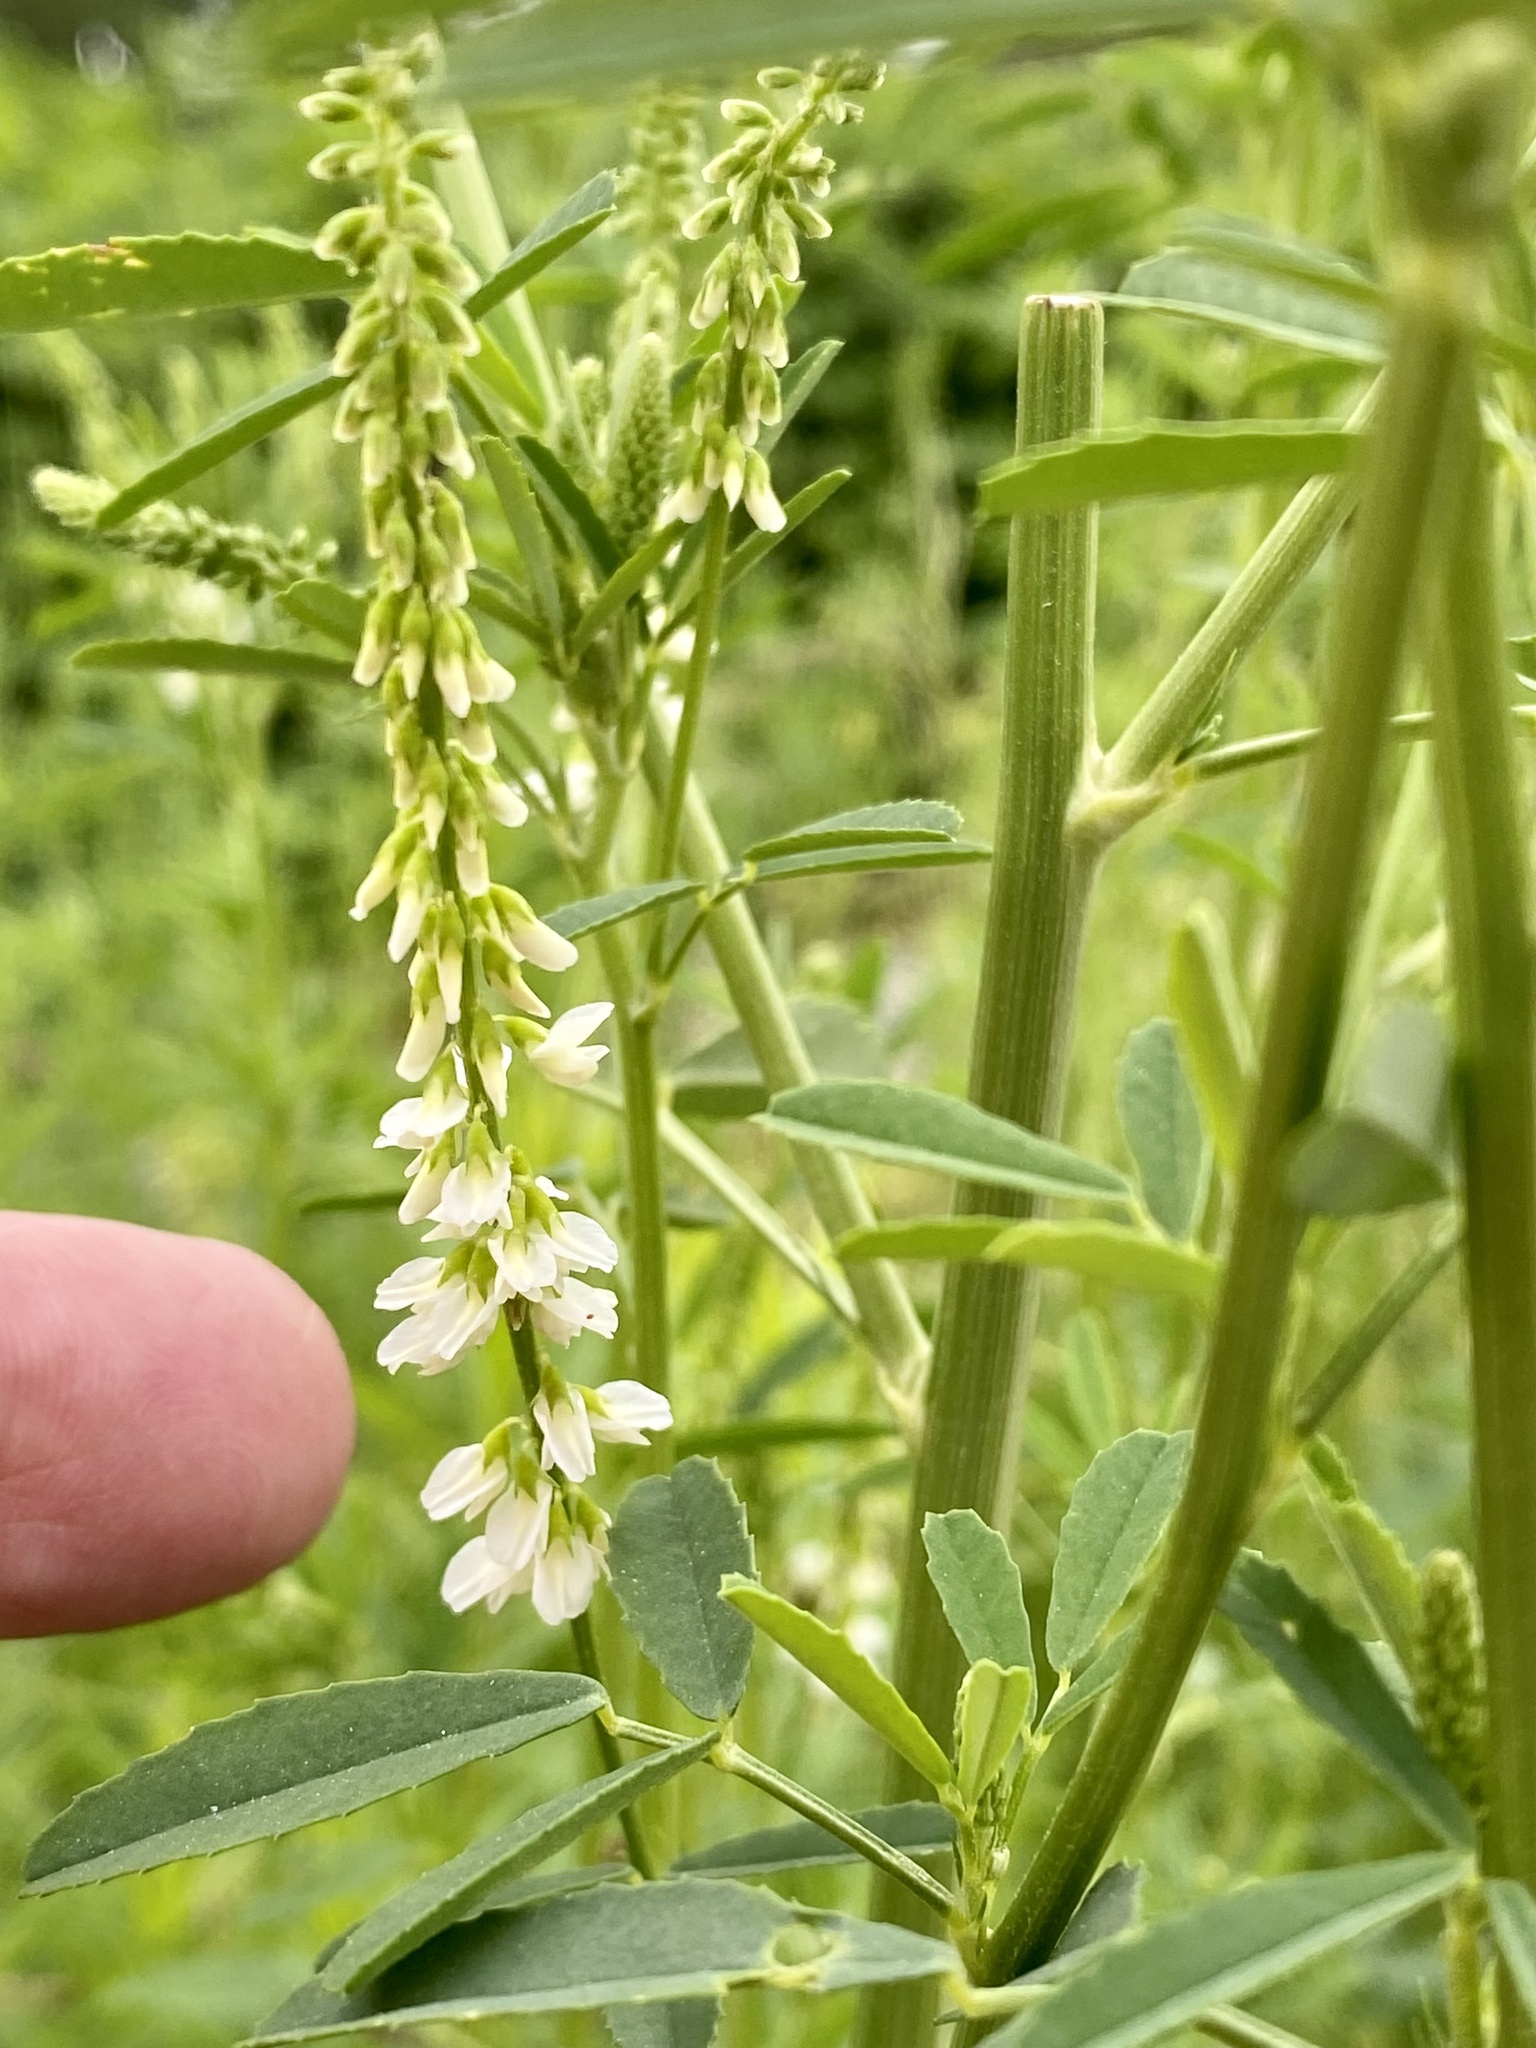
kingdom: Plantae
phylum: Tracheophyta
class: Magnoliopsida
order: Fabales
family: Fabaceae
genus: Melilotus
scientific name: Melilotus albus
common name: White melilot
